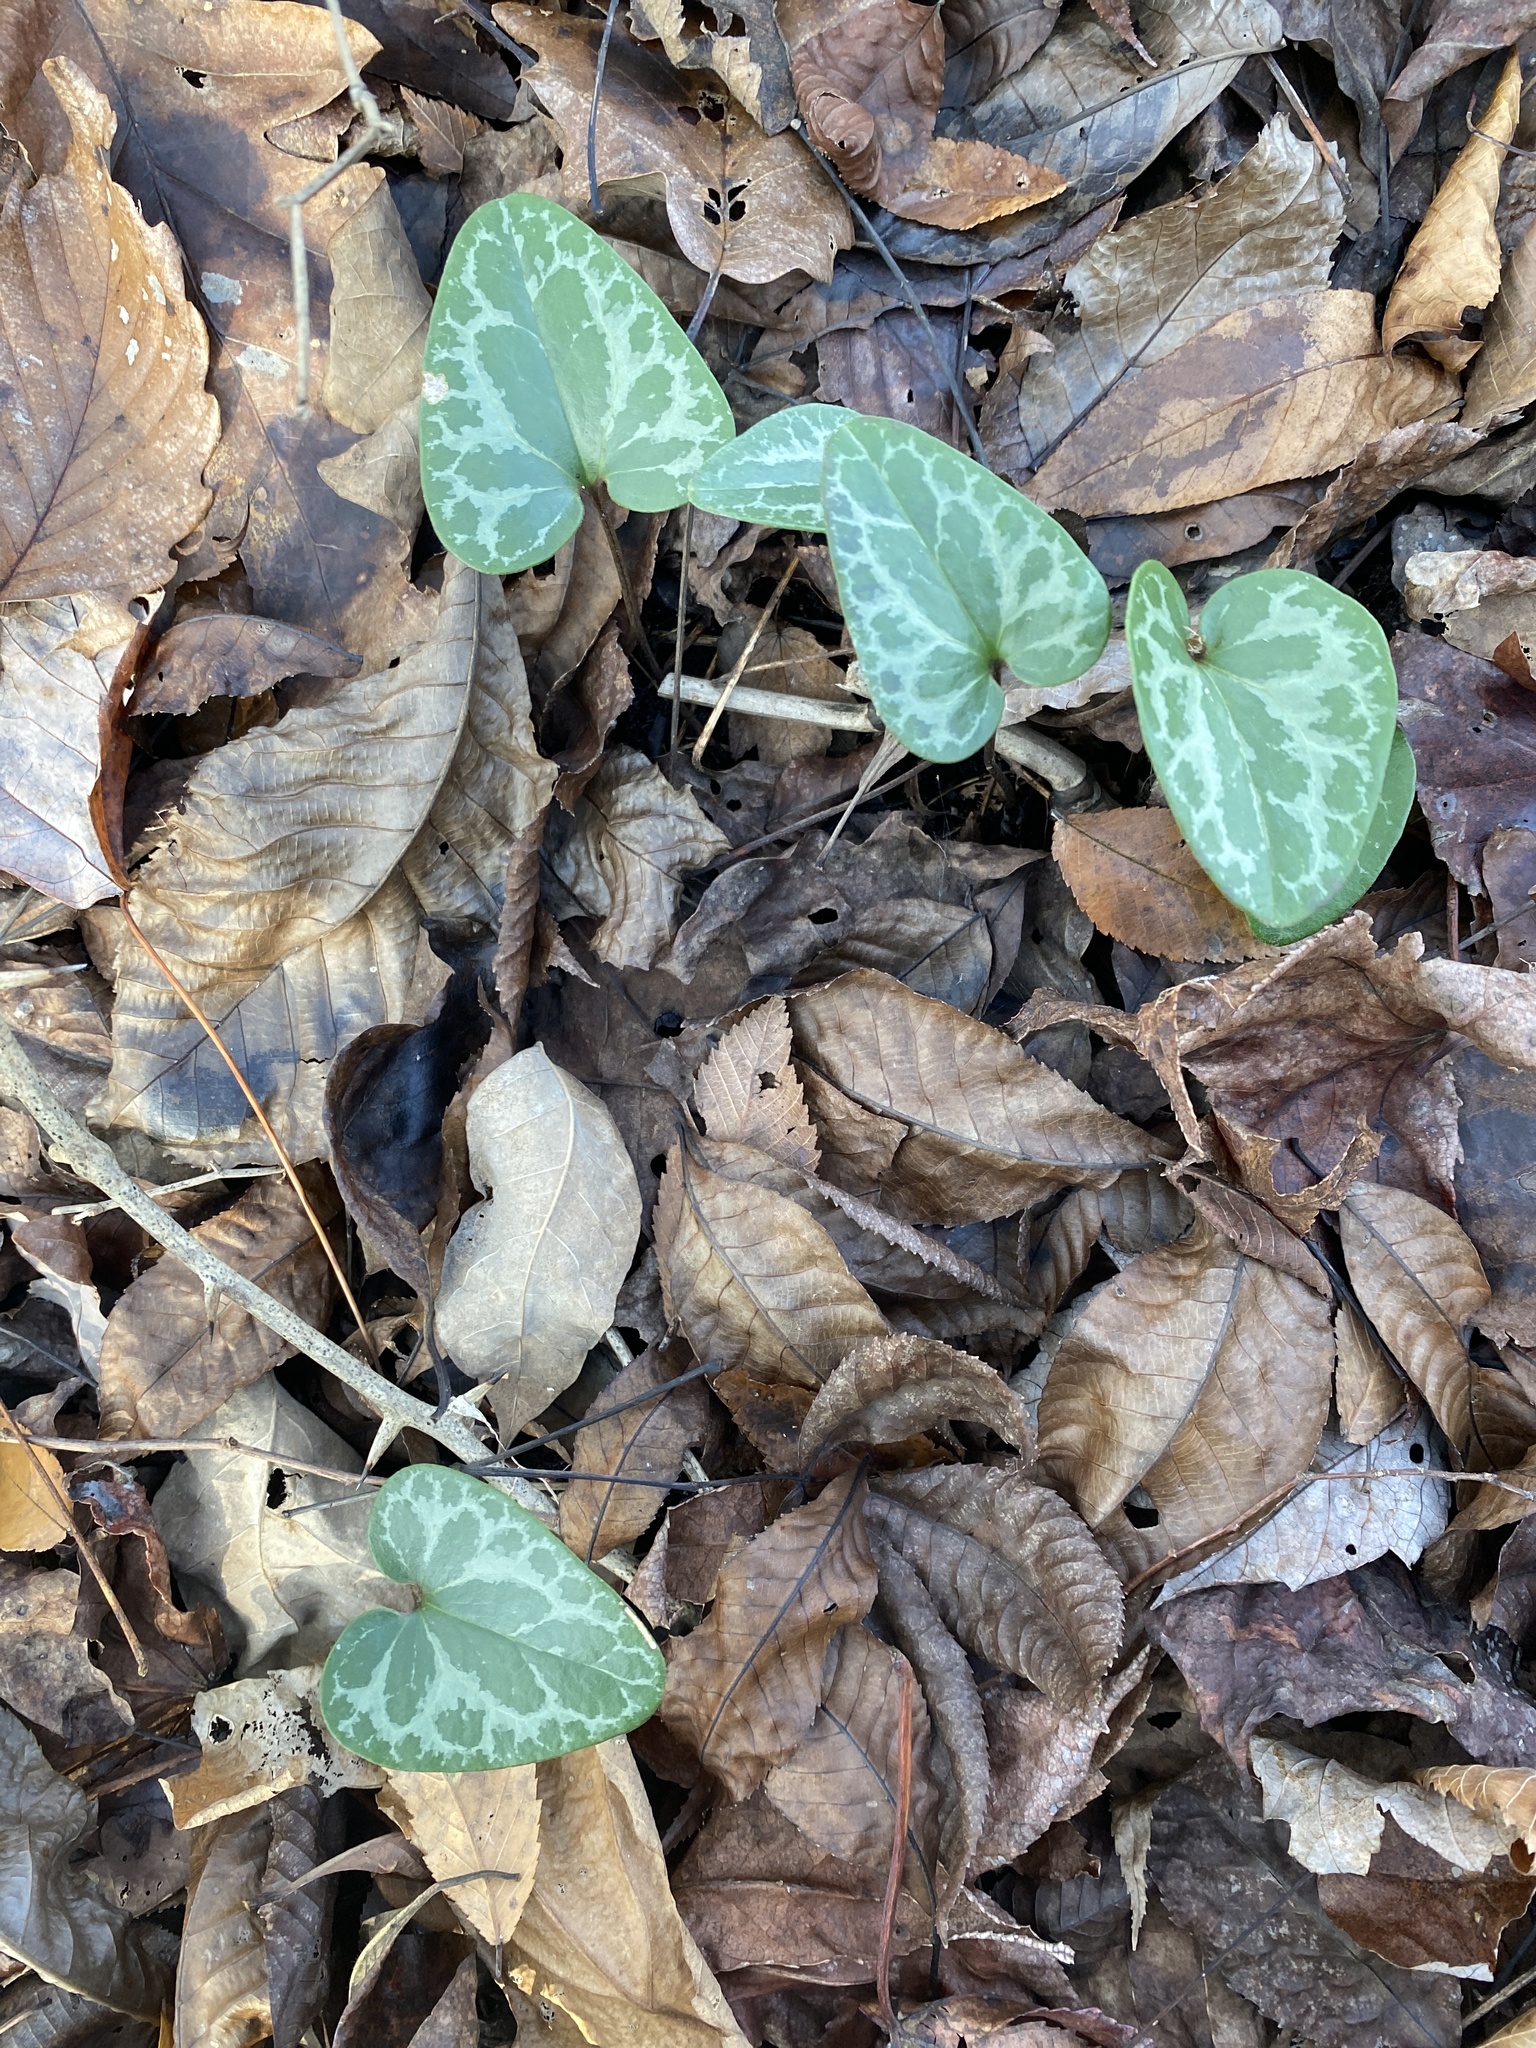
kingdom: Plantae
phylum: Tracheophyta
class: Magnoliopsida
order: Piperales
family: Aristolochiaceae
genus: Hexastylis
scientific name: Hexastylis lewisii
